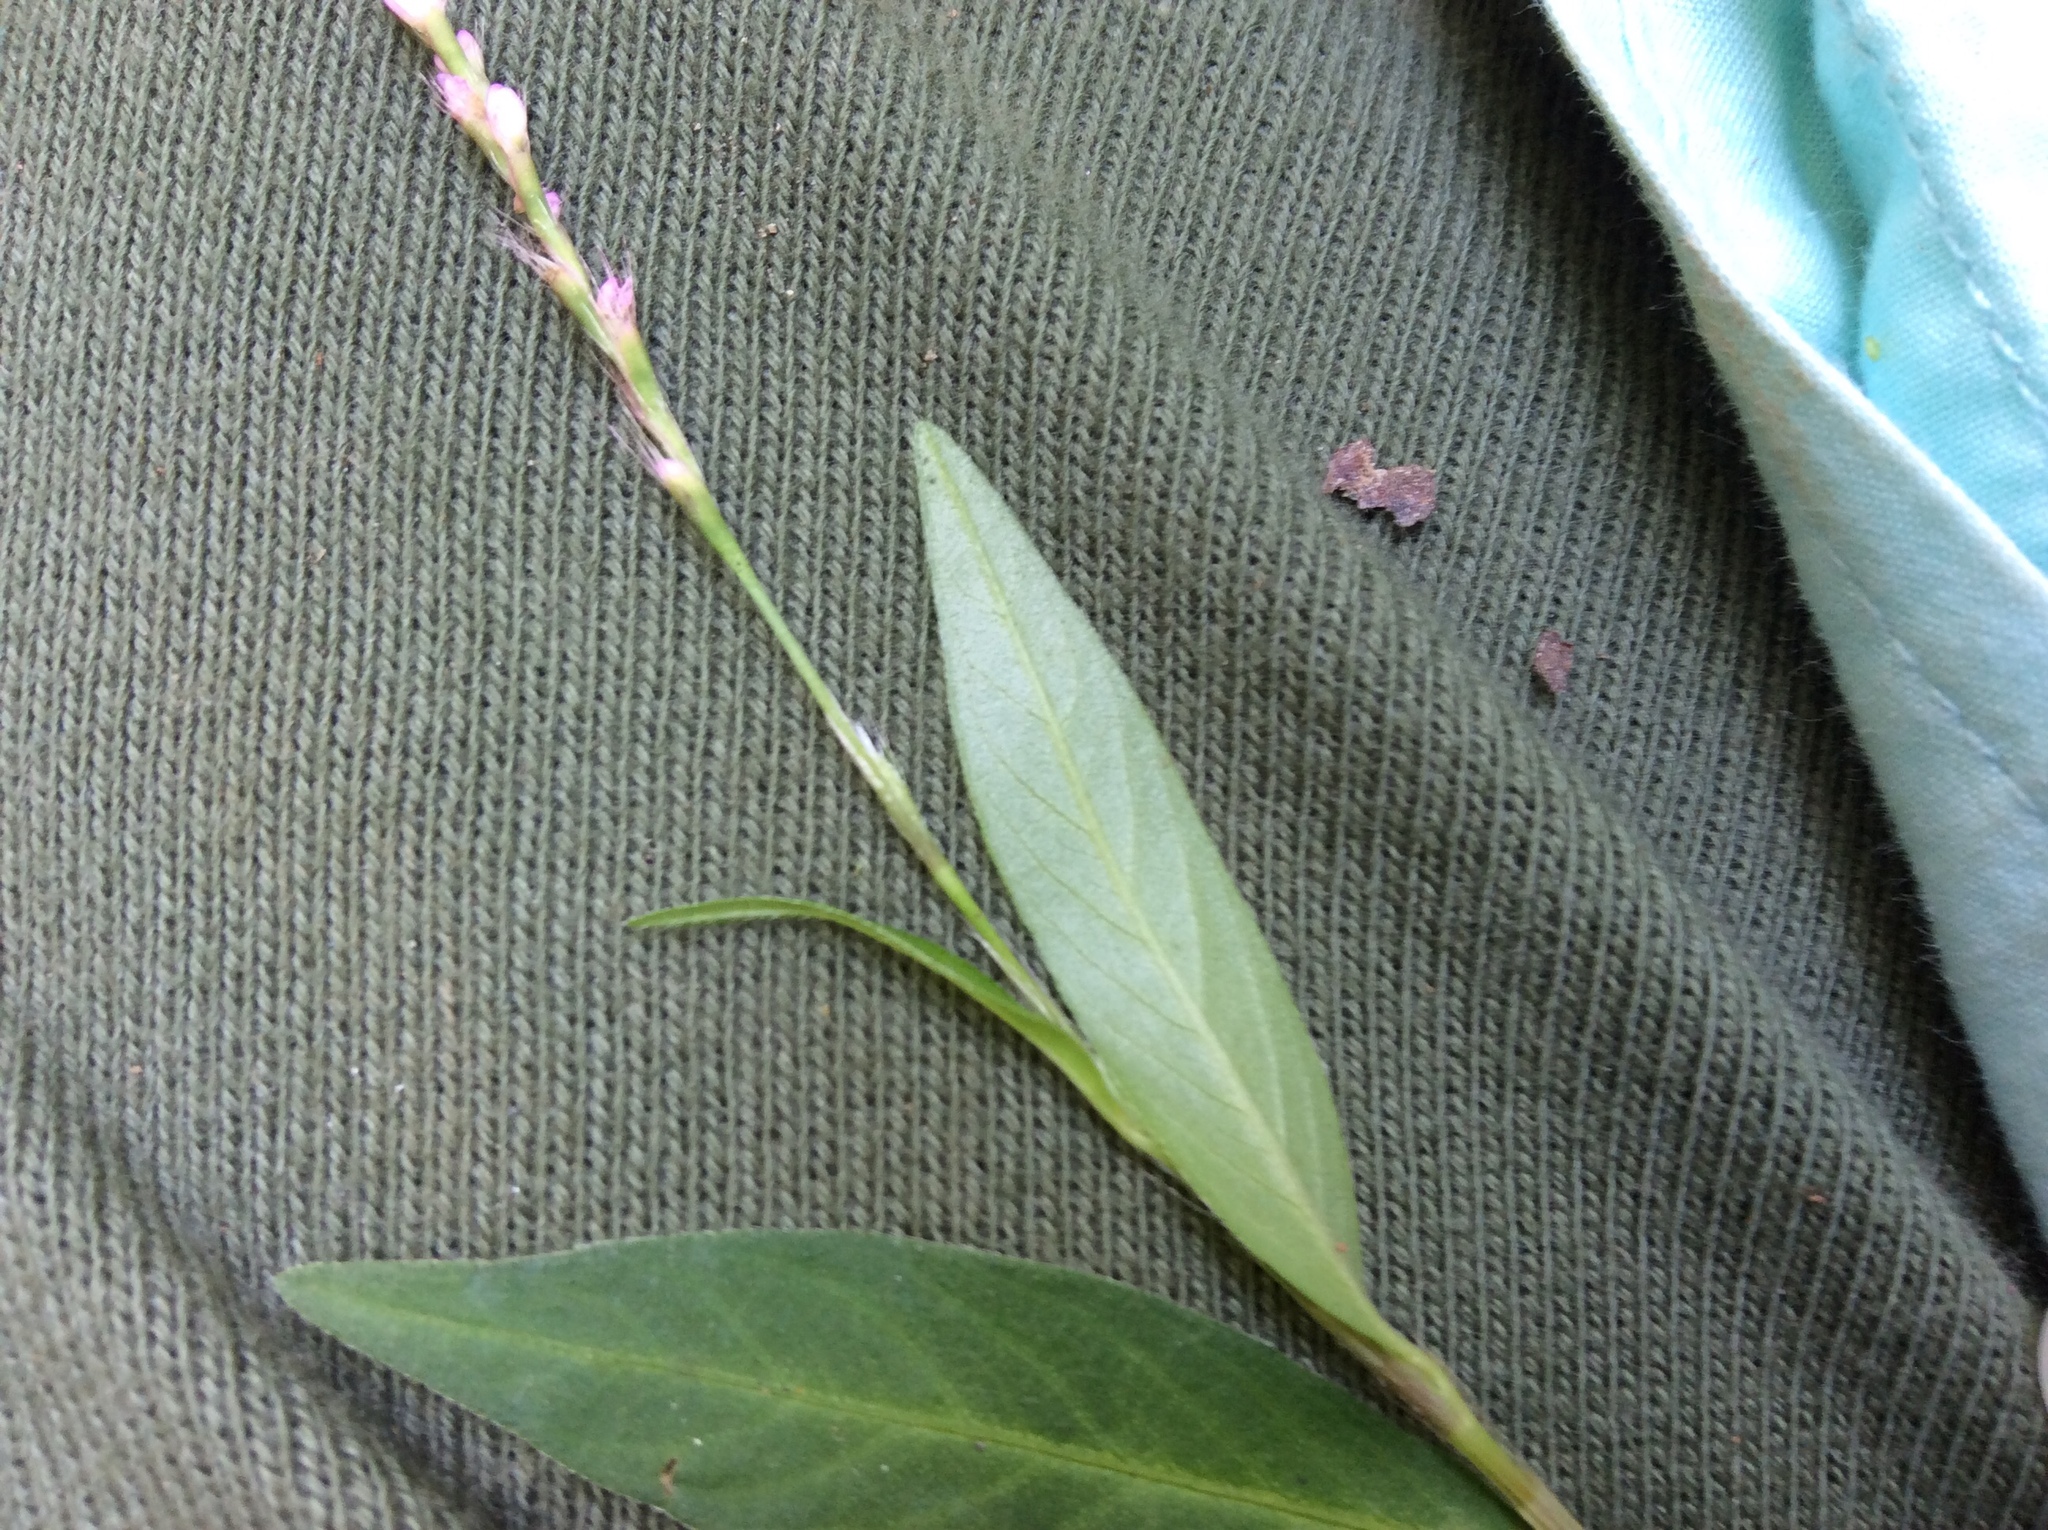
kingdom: Plantae
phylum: Tracheophyta
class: Magnoliopsida
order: Caryophyllales
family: Polygonaceae
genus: Persicaria
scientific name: Persicaria longiseta
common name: Bristly lady's-thumb
